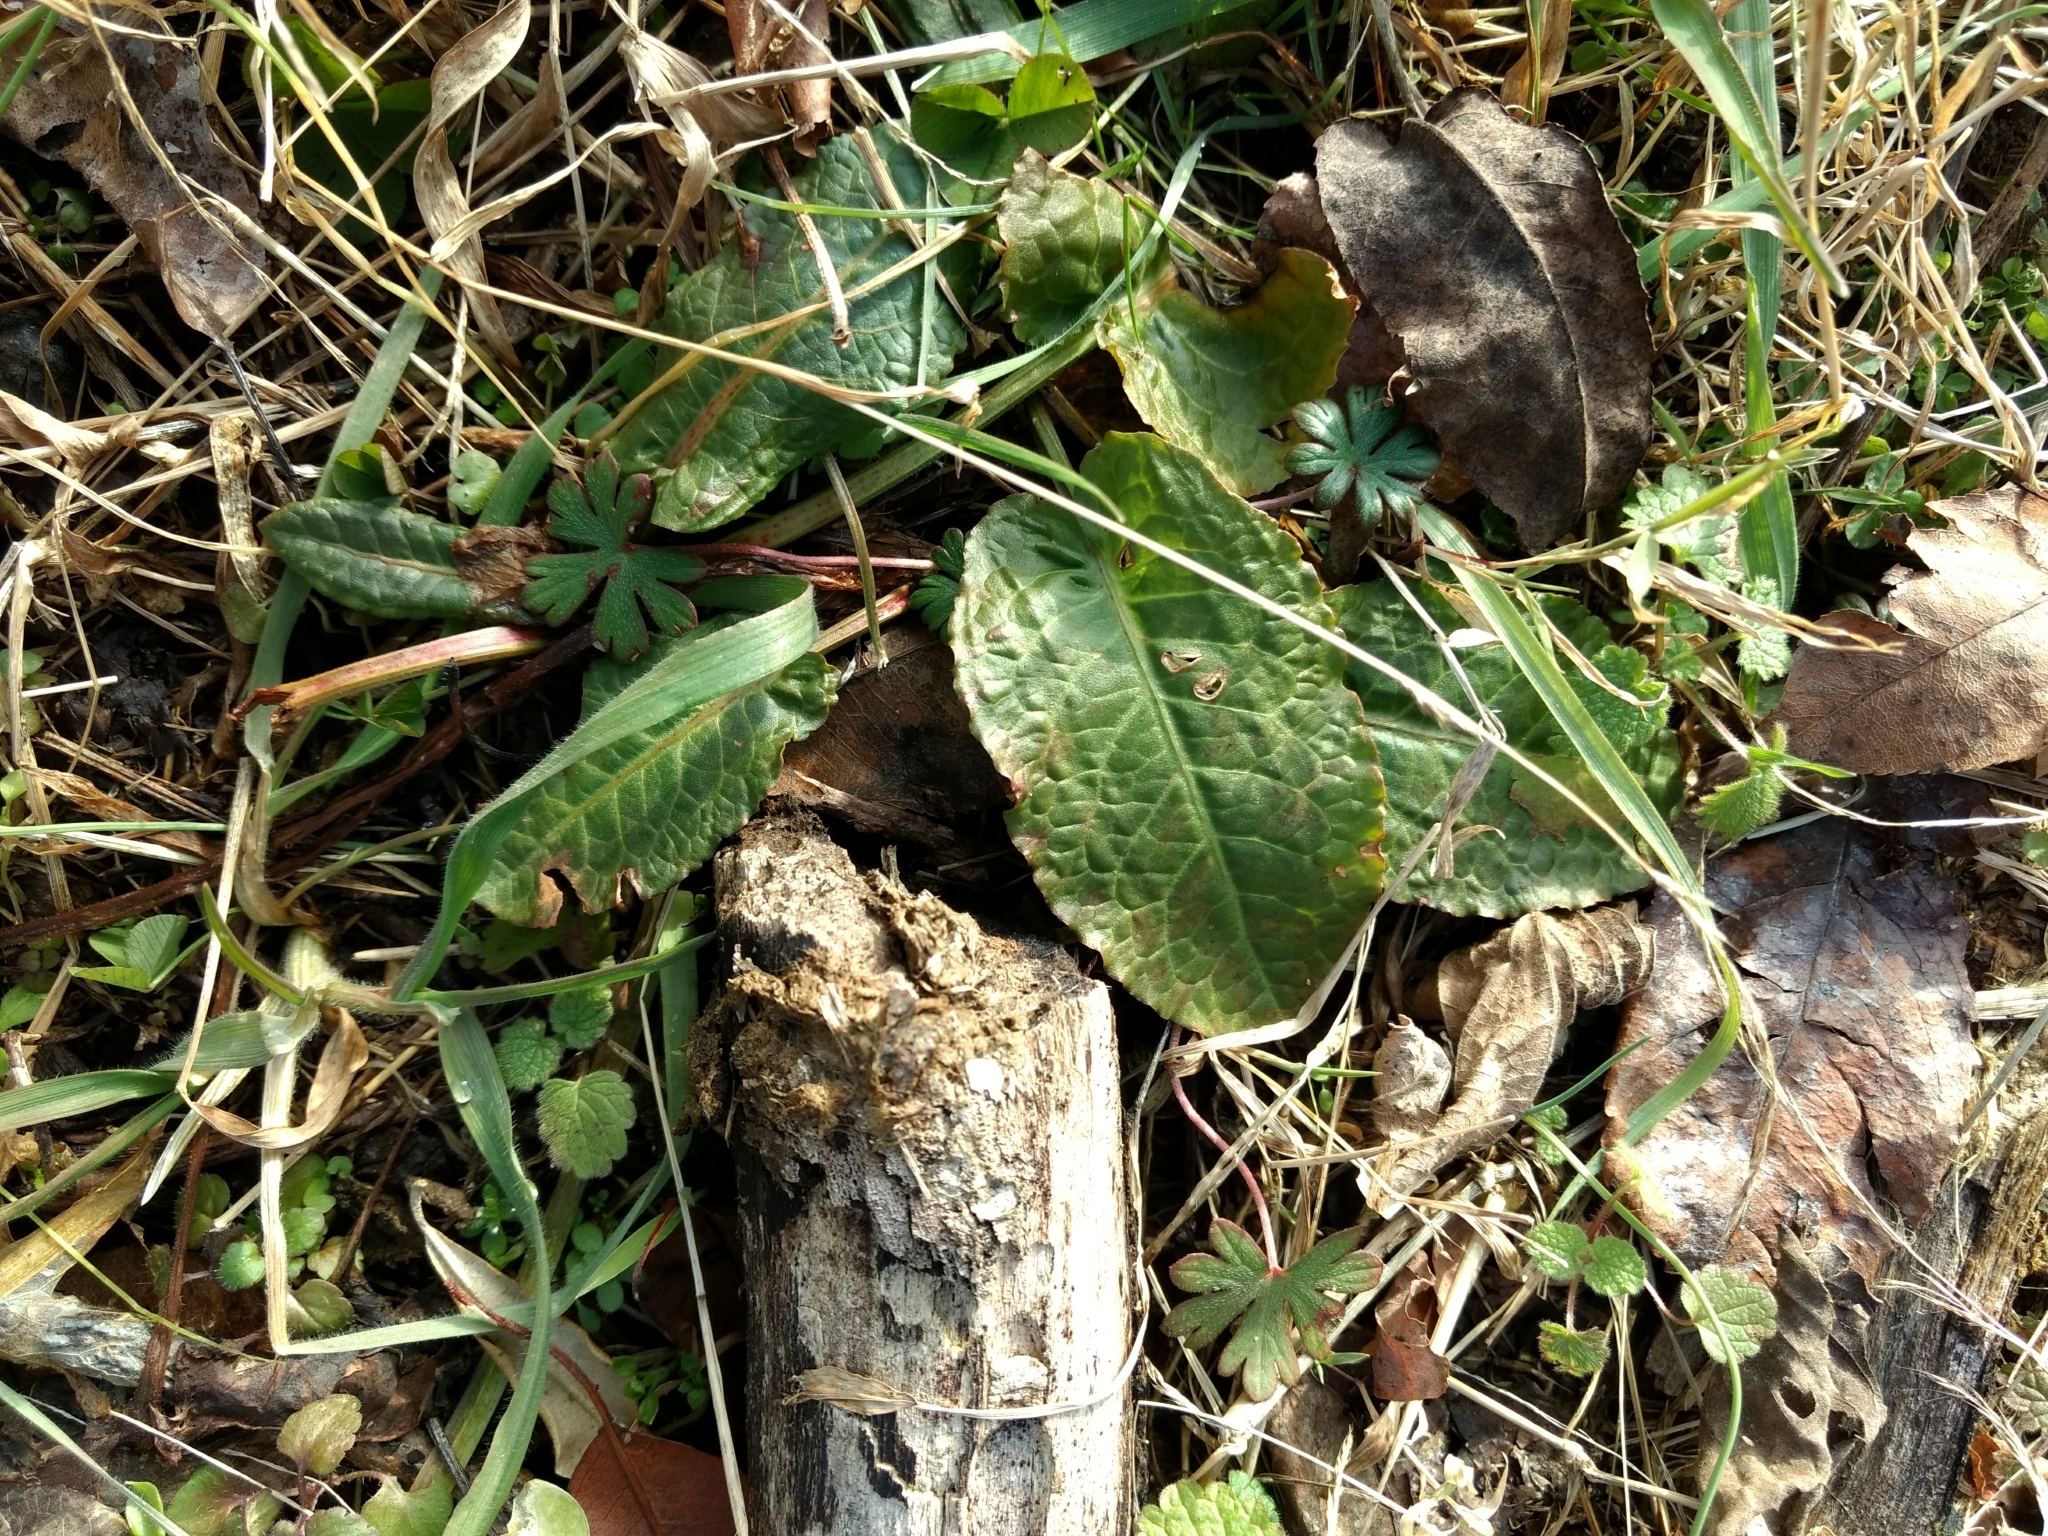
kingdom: Plantae
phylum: Tracheophyta
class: Magnoliopsida
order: Caryophyllales
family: Polygonaceae
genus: Rumex
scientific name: Rumex obtusifolius
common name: Bitter dock
